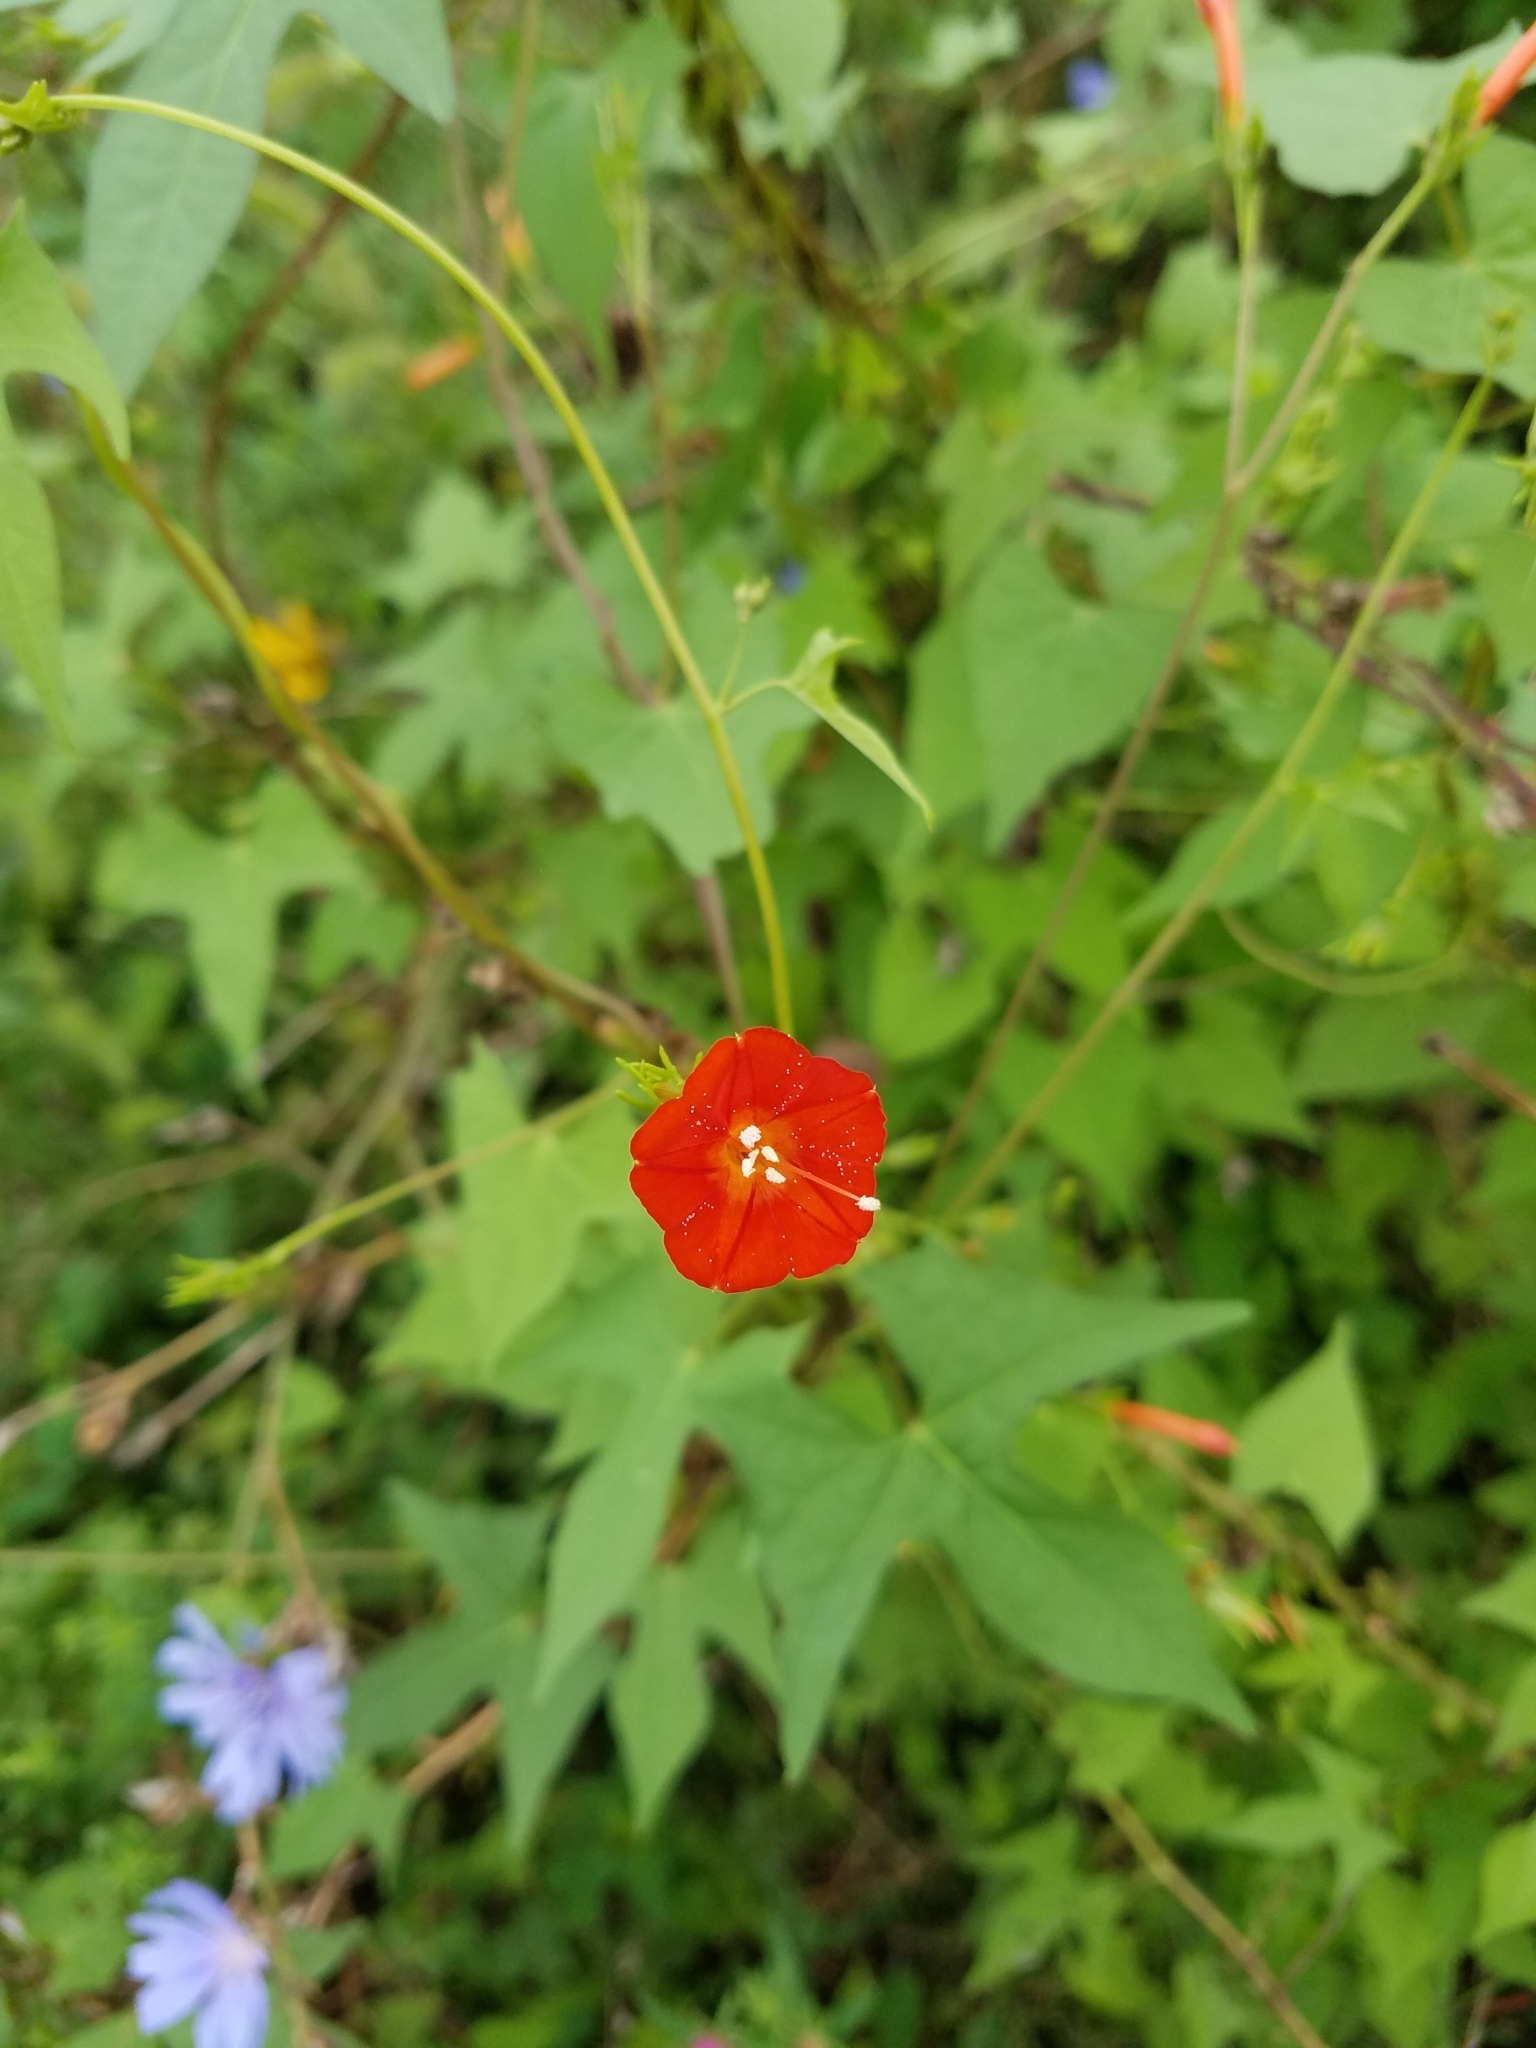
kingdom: Plantae
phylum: Tracheophyta
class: Magnoliopsida
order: Solanales
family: Convolvulaceae
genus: Ipomoea
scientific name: Ipomoea hederifolia
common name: Ivy-leaf morning-glory
